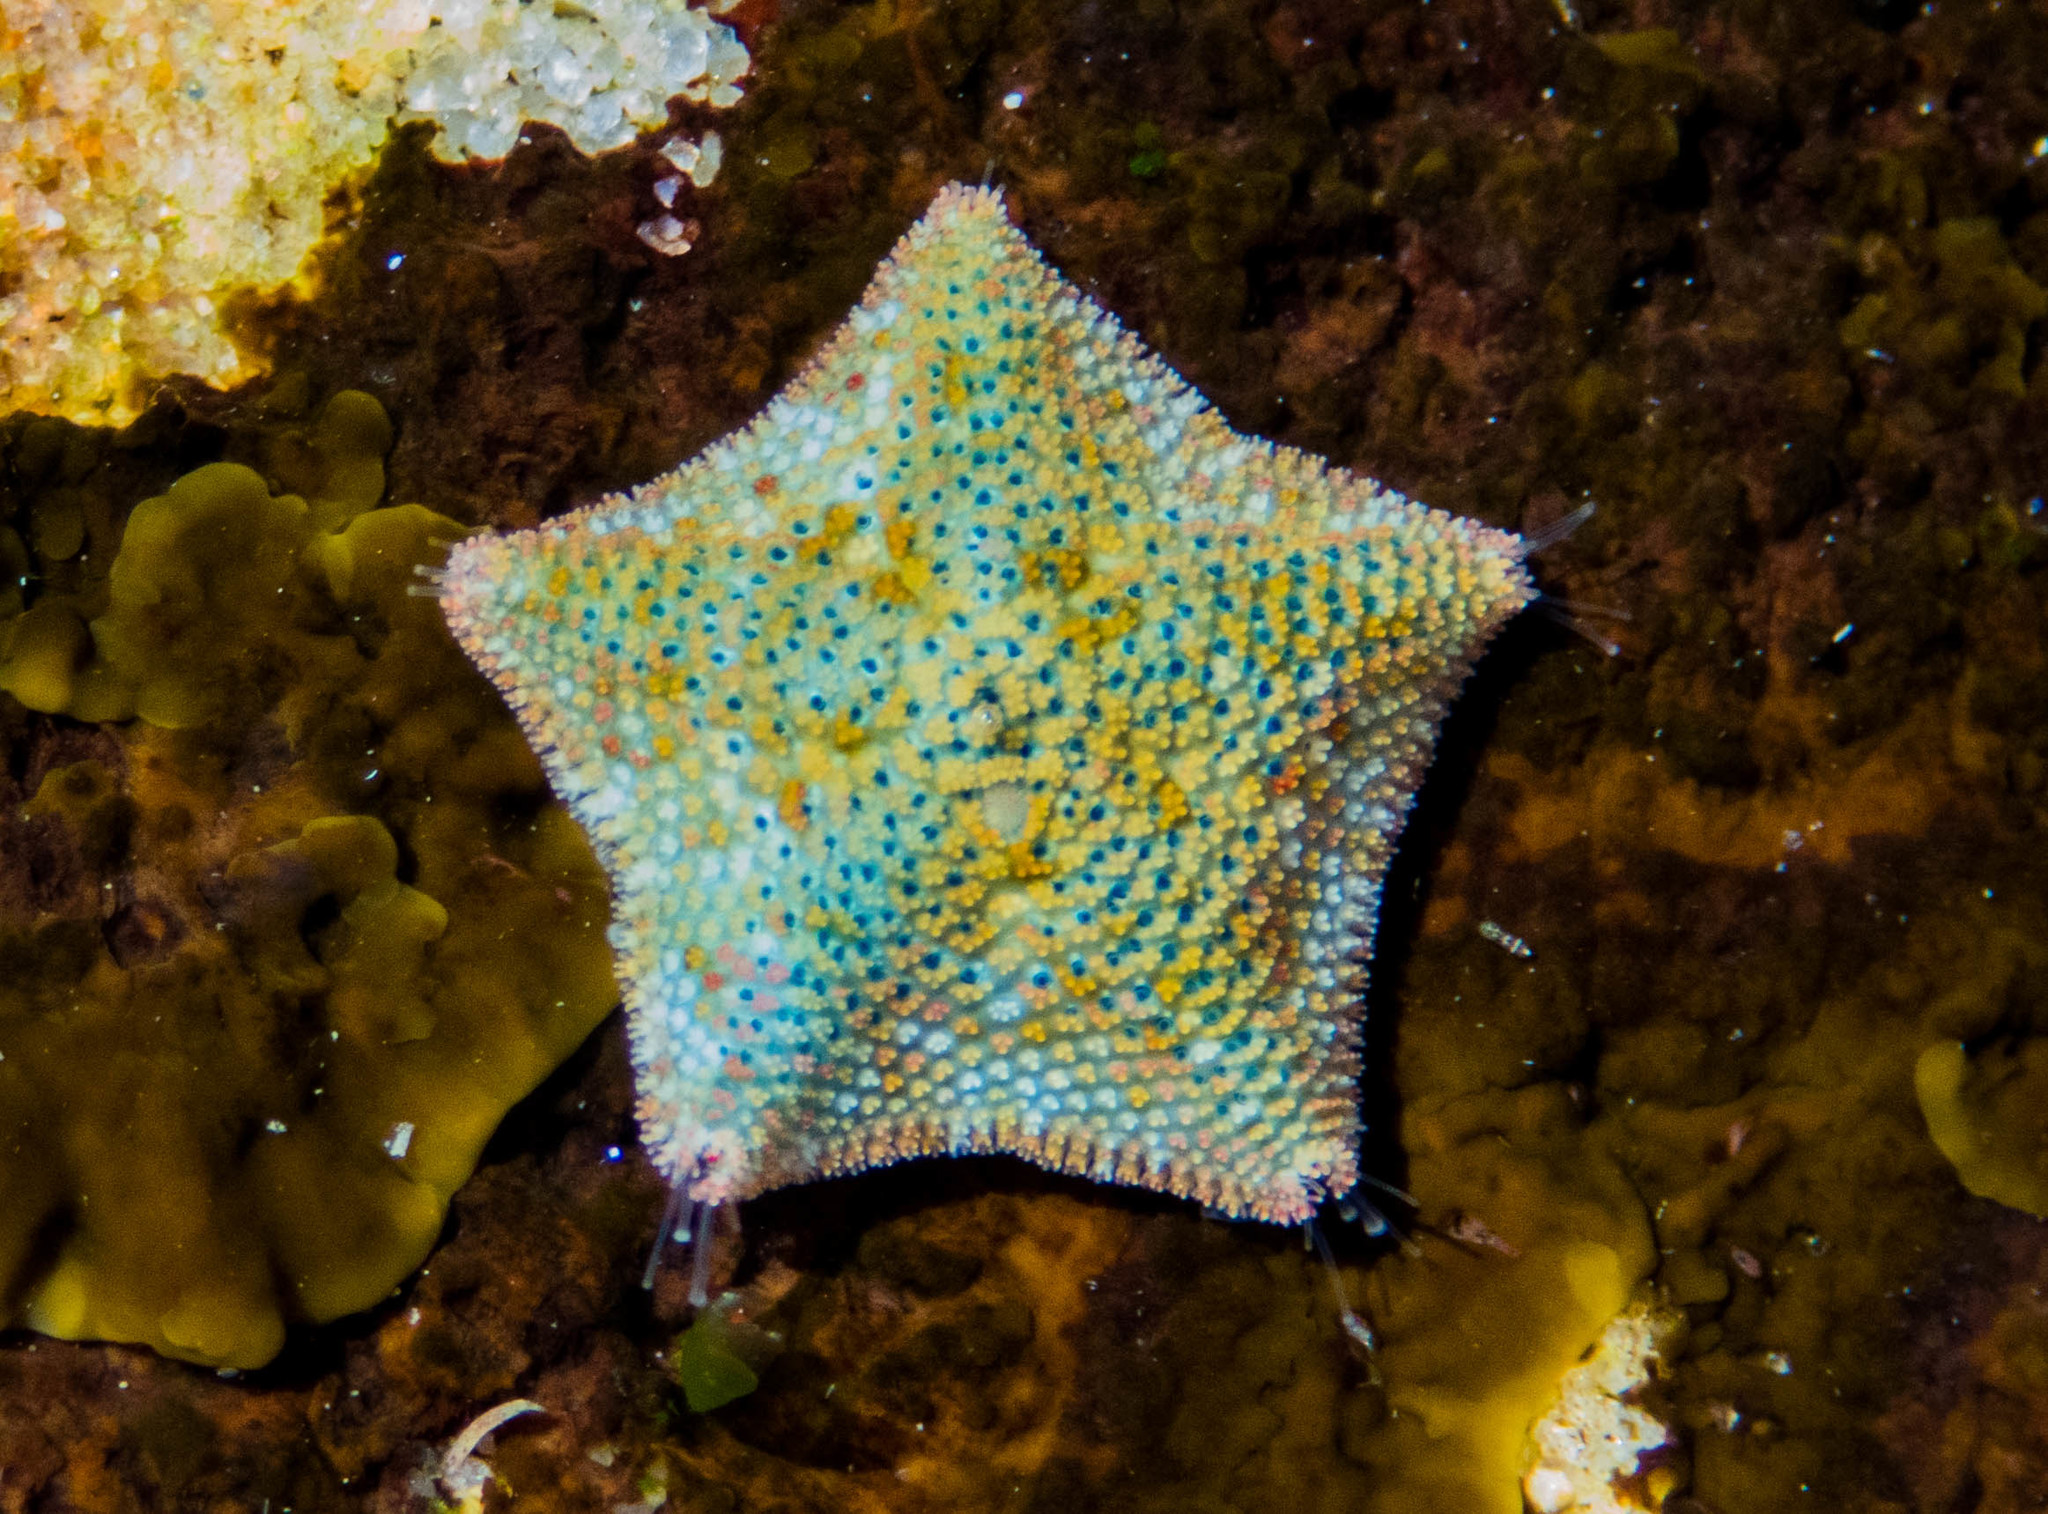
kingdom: Animalia
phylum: Echinodermata
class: Asteroidea
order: Valvatida
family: Asterinidae
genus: Parvulastra
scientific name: Parvulastra exigua
